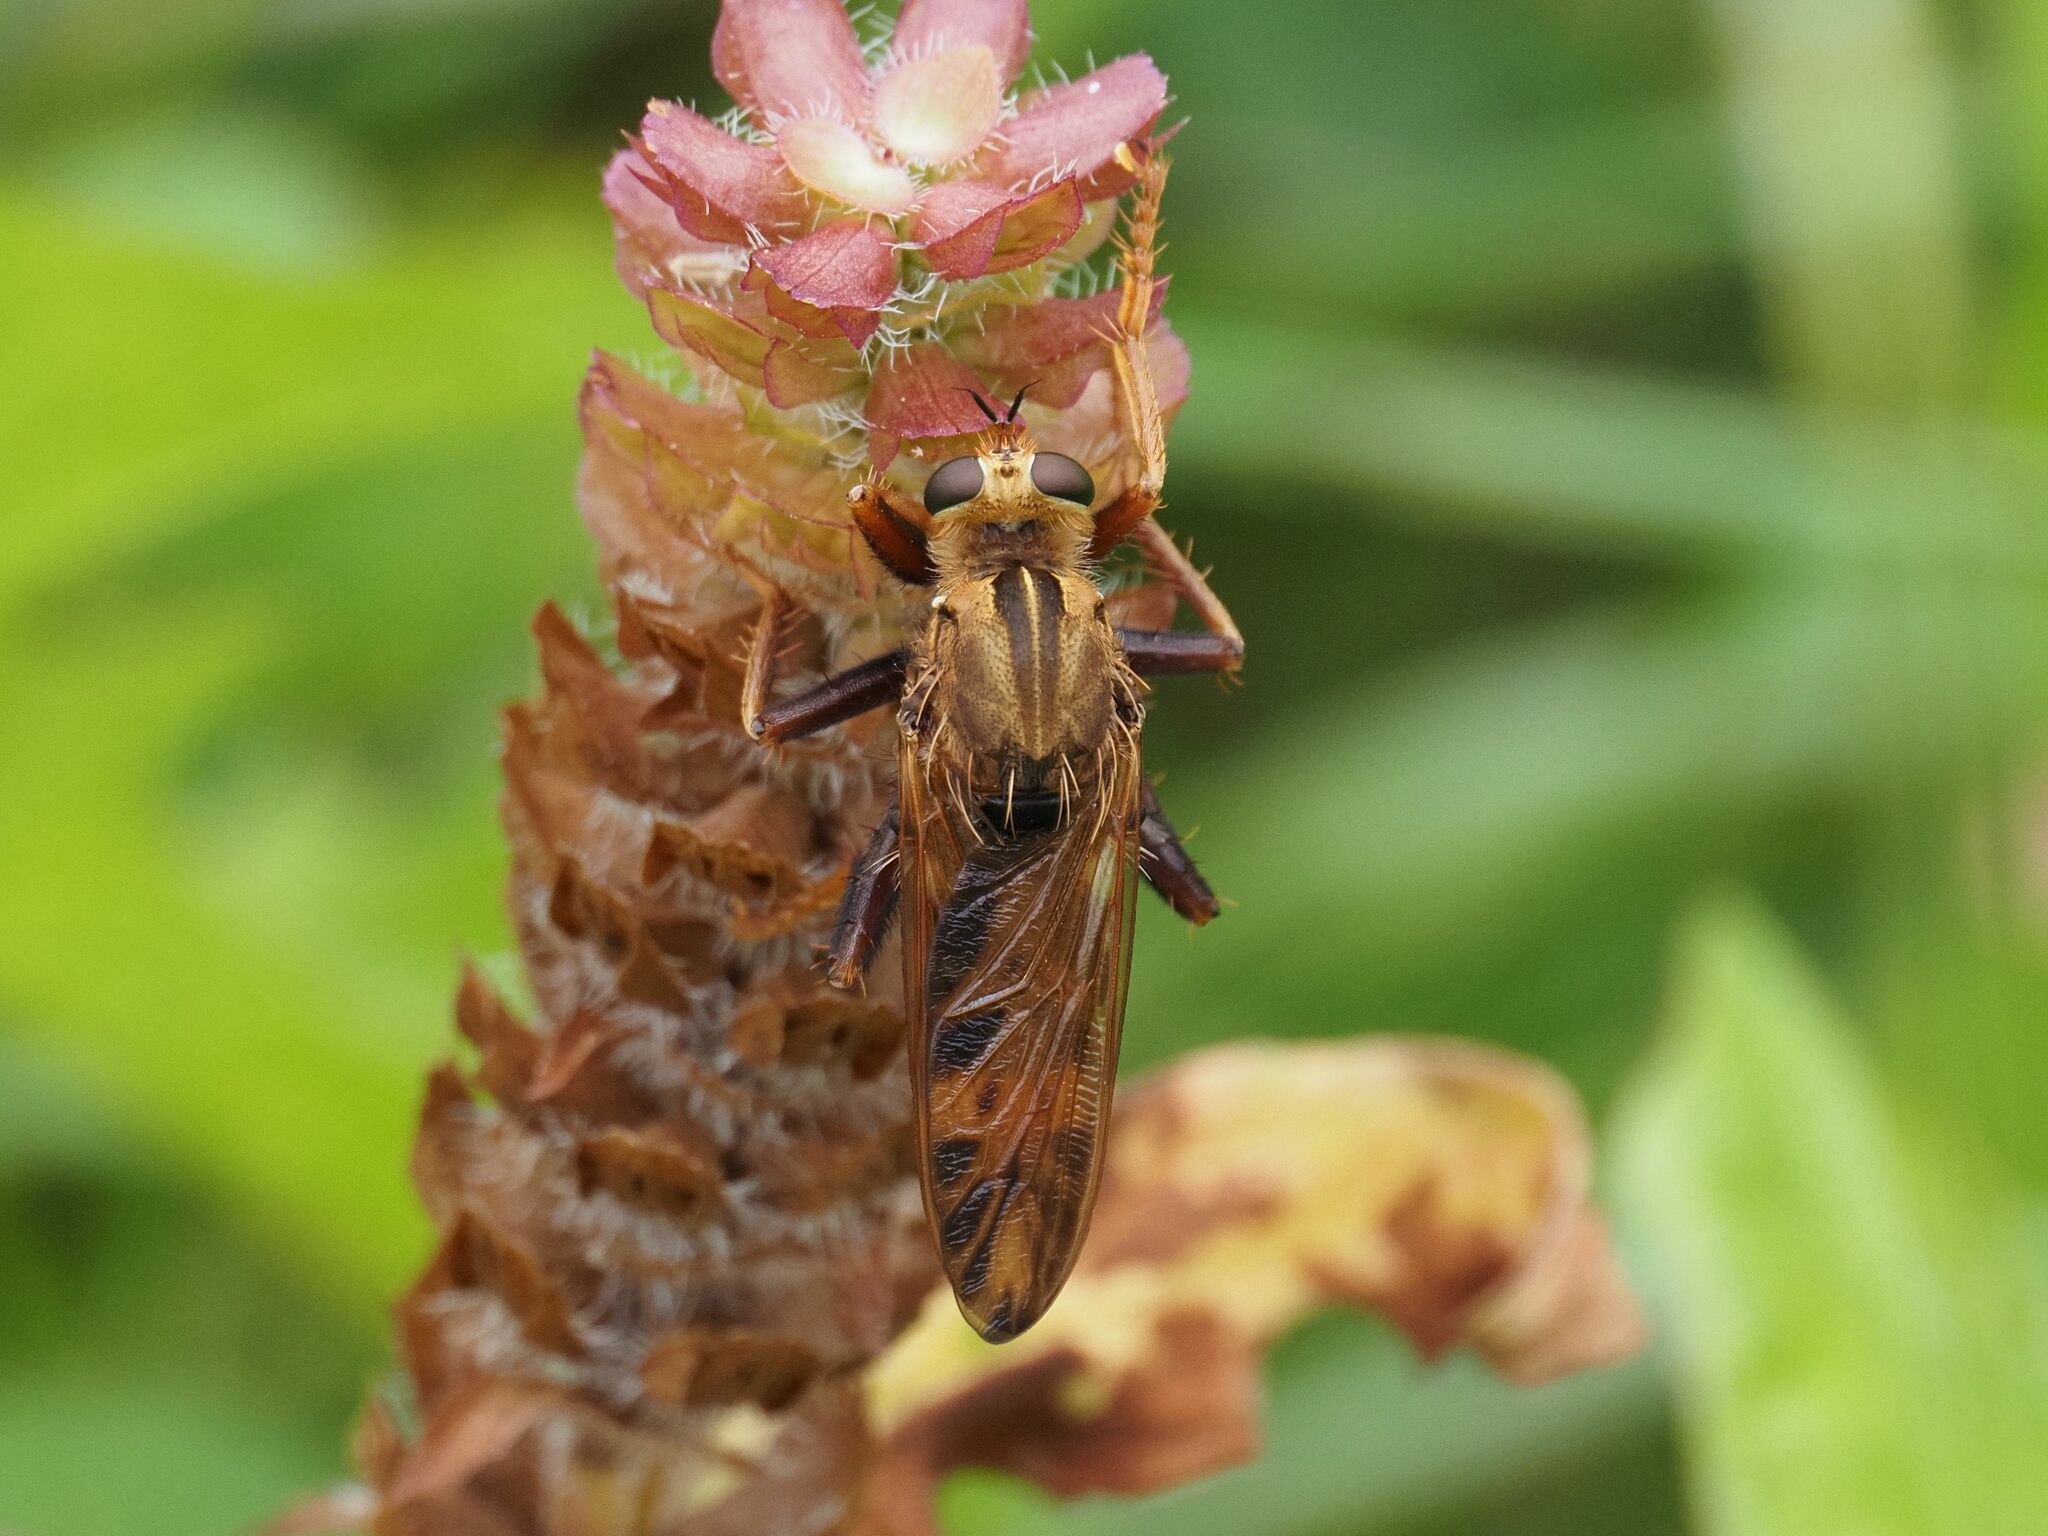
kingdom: Animalia
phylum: Arthropoda
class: Insecta
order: Diptera
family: Asilidae
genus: Asilus
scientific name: Asilus crabroniformis
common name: Hornet robberfly
